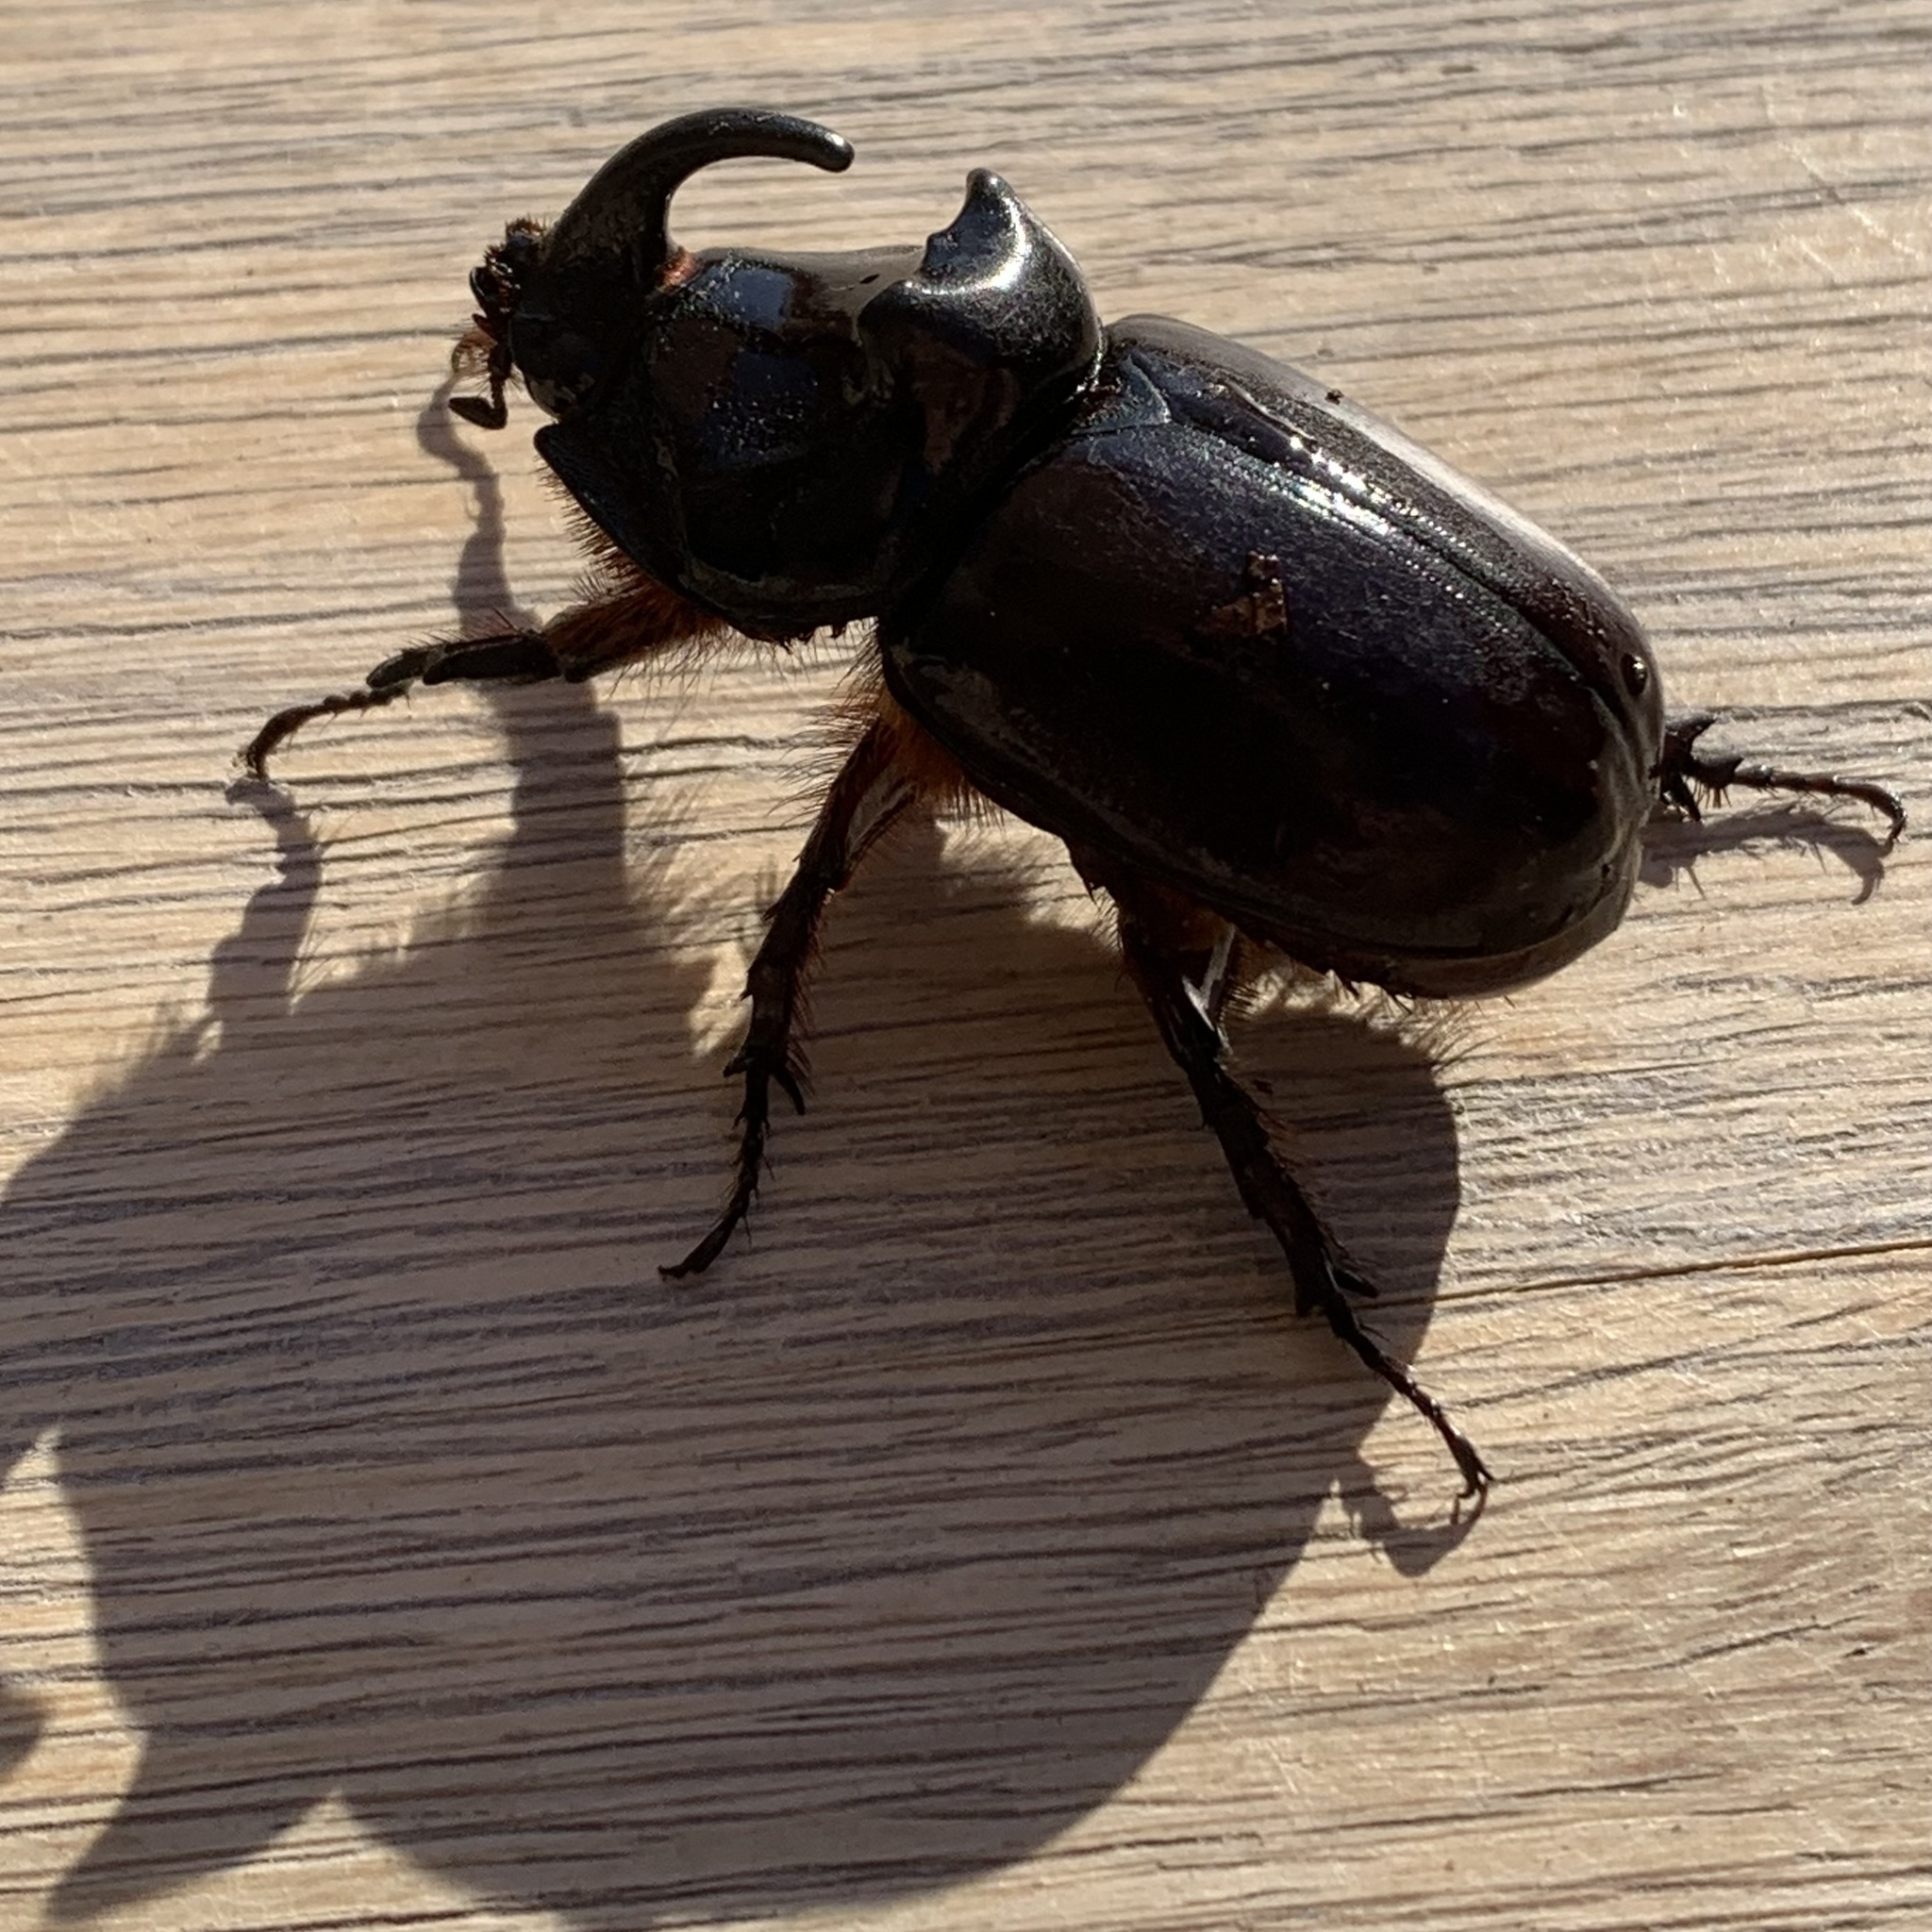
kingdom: Animalia
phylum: Arthropoda
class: Insecta
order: Coleoptera
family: Scarabaeidae
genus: Oryctes
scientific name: Oryctes nasicornis
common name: European rhinoceros beetle
